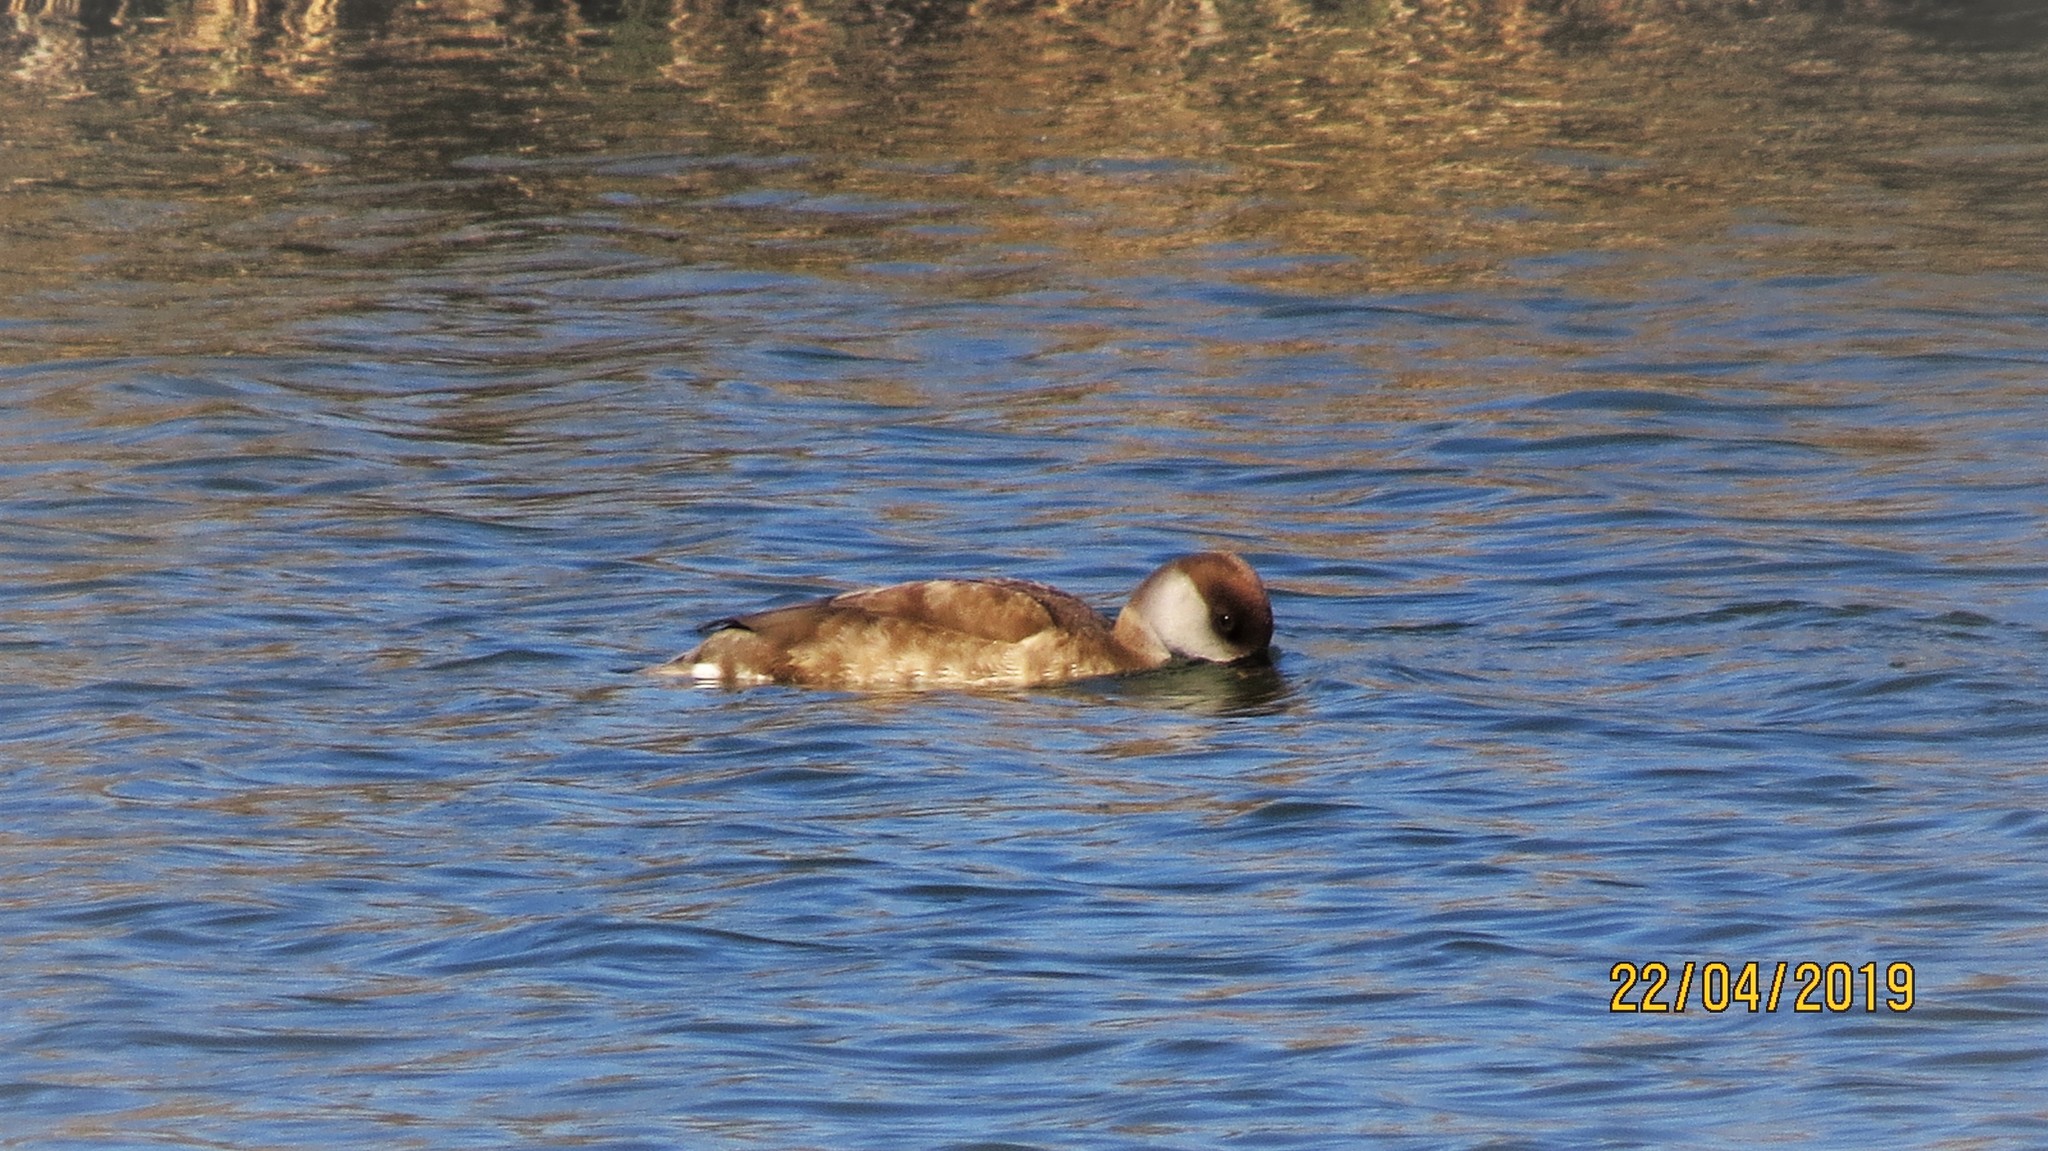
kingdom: Animalia
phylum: Chordata
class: Aves
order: Anseriformes
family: Anatidae
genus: Netta
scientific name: Netta rufina
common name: Red-crested pochard
